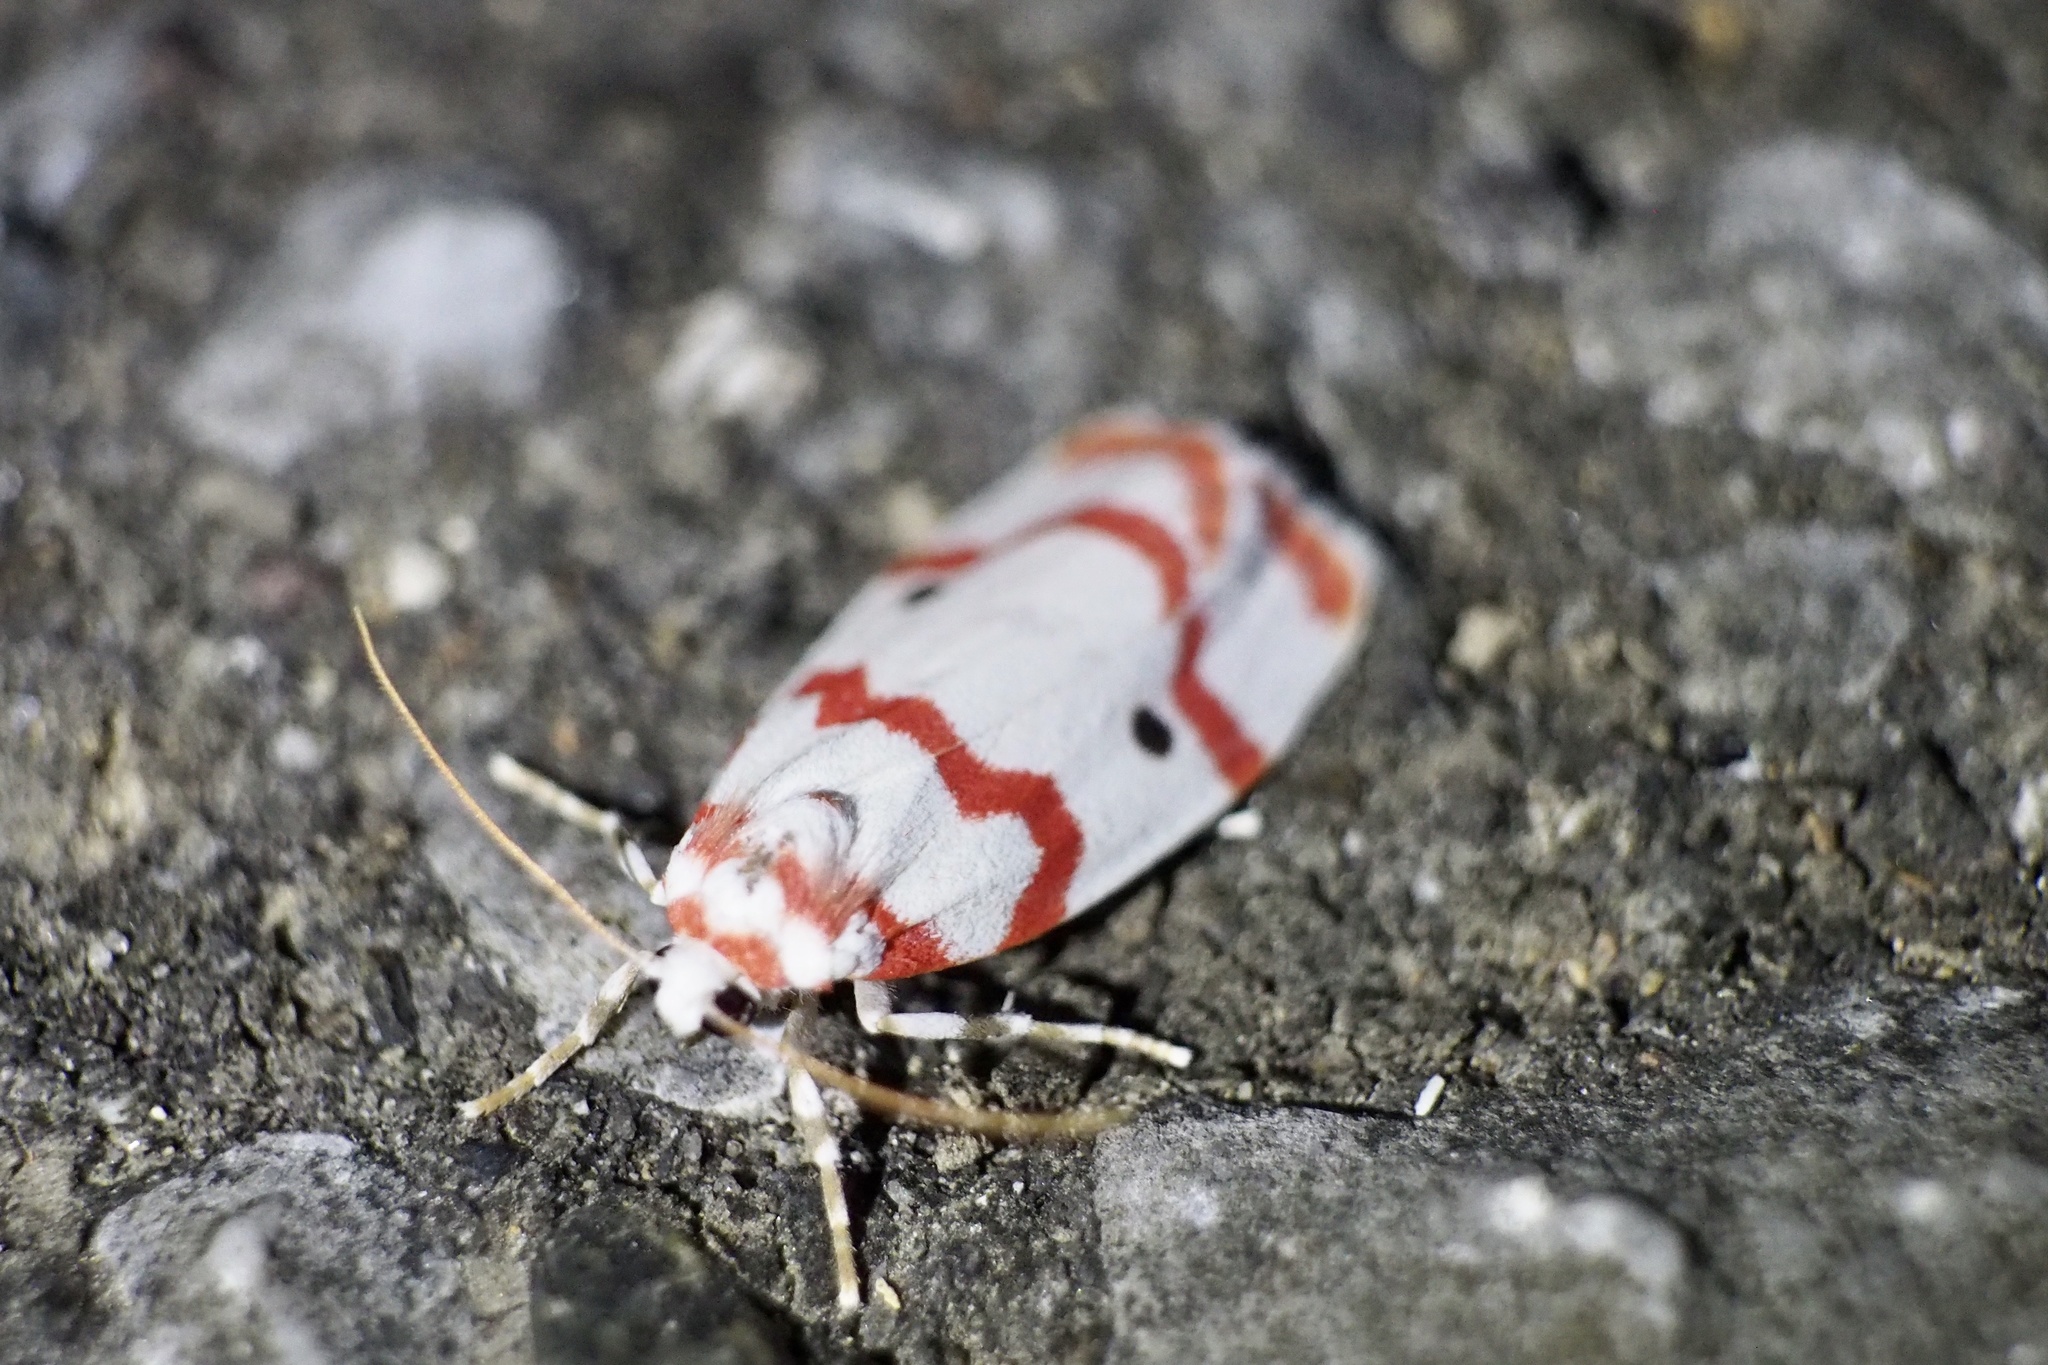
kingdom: Animalia
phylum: Arthropoda
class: Insecta
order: Lepidoptera
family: Erebidae
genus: Cyana
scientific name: Cyana hamata
